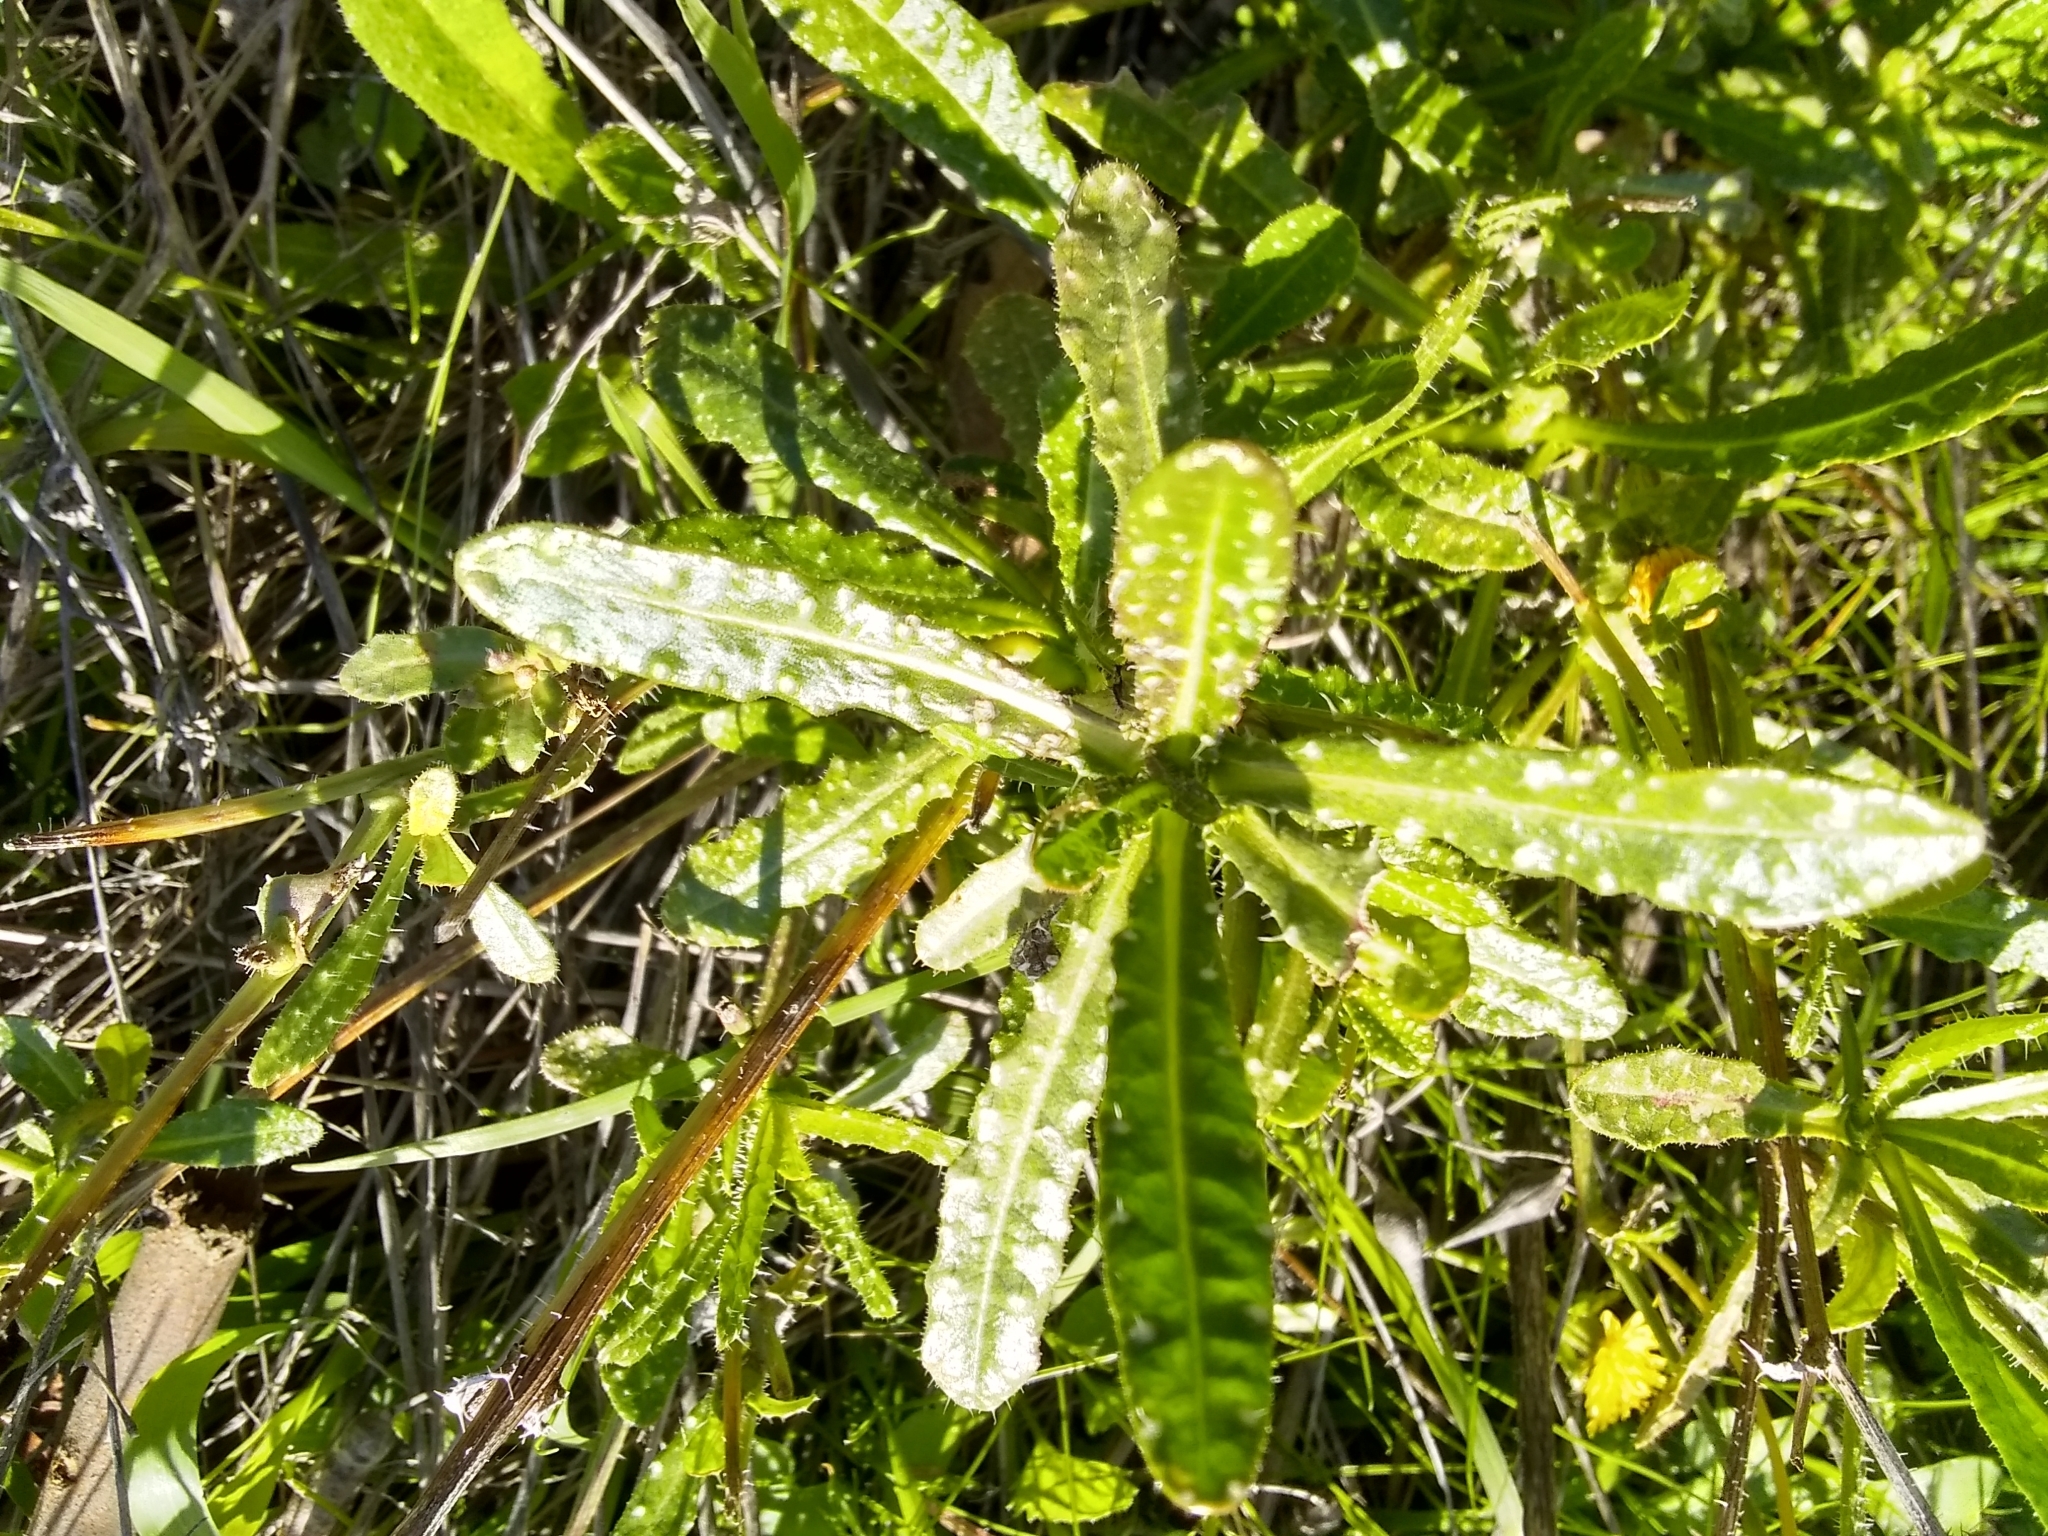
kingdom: Plantae
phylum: Tracheophyta
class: Magnoliopsida
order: Asterales
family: Asteraceae
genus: Helminthotheca
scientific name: Helminthotheca echioides
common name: Ox-tongue
